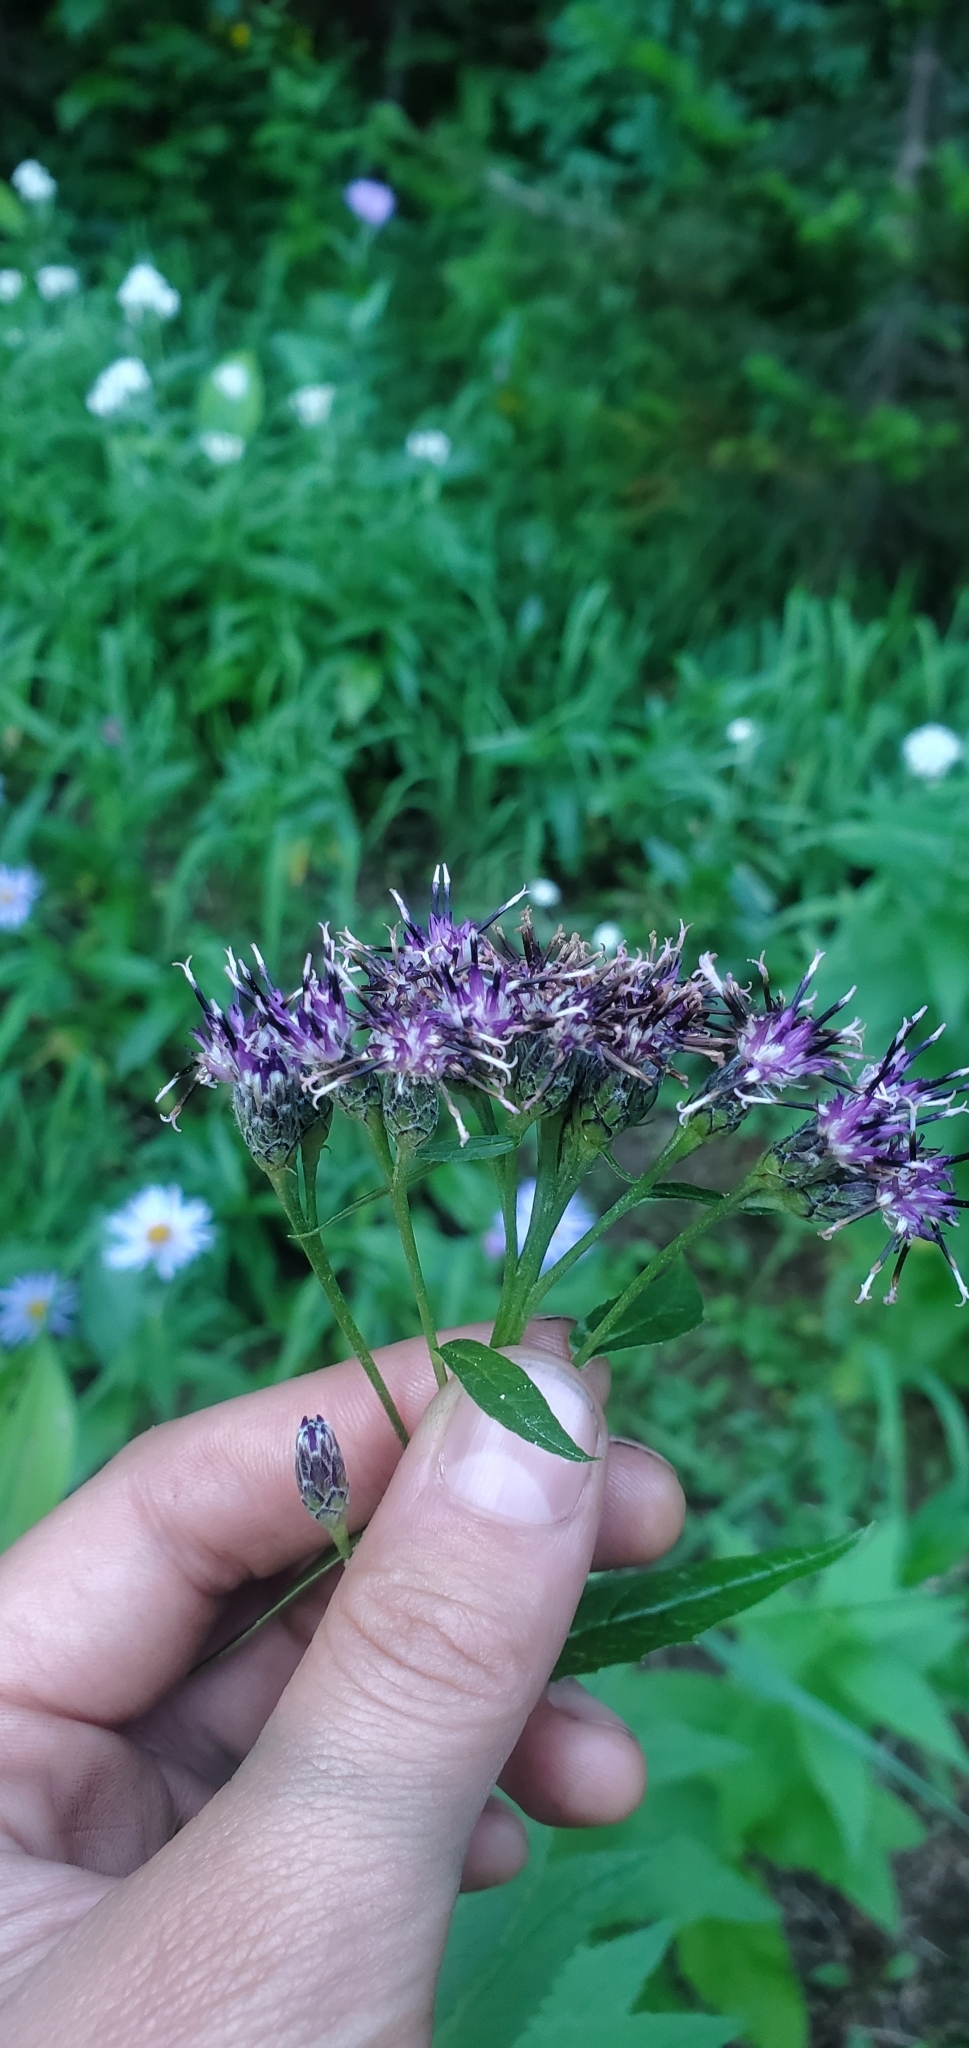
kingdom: Plantae
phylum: Tracheophyta
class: Magnoliopsida
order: Asterales
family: Asteraceae
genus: Saussurea
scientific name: Saussurea americana
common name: American saw-wort
